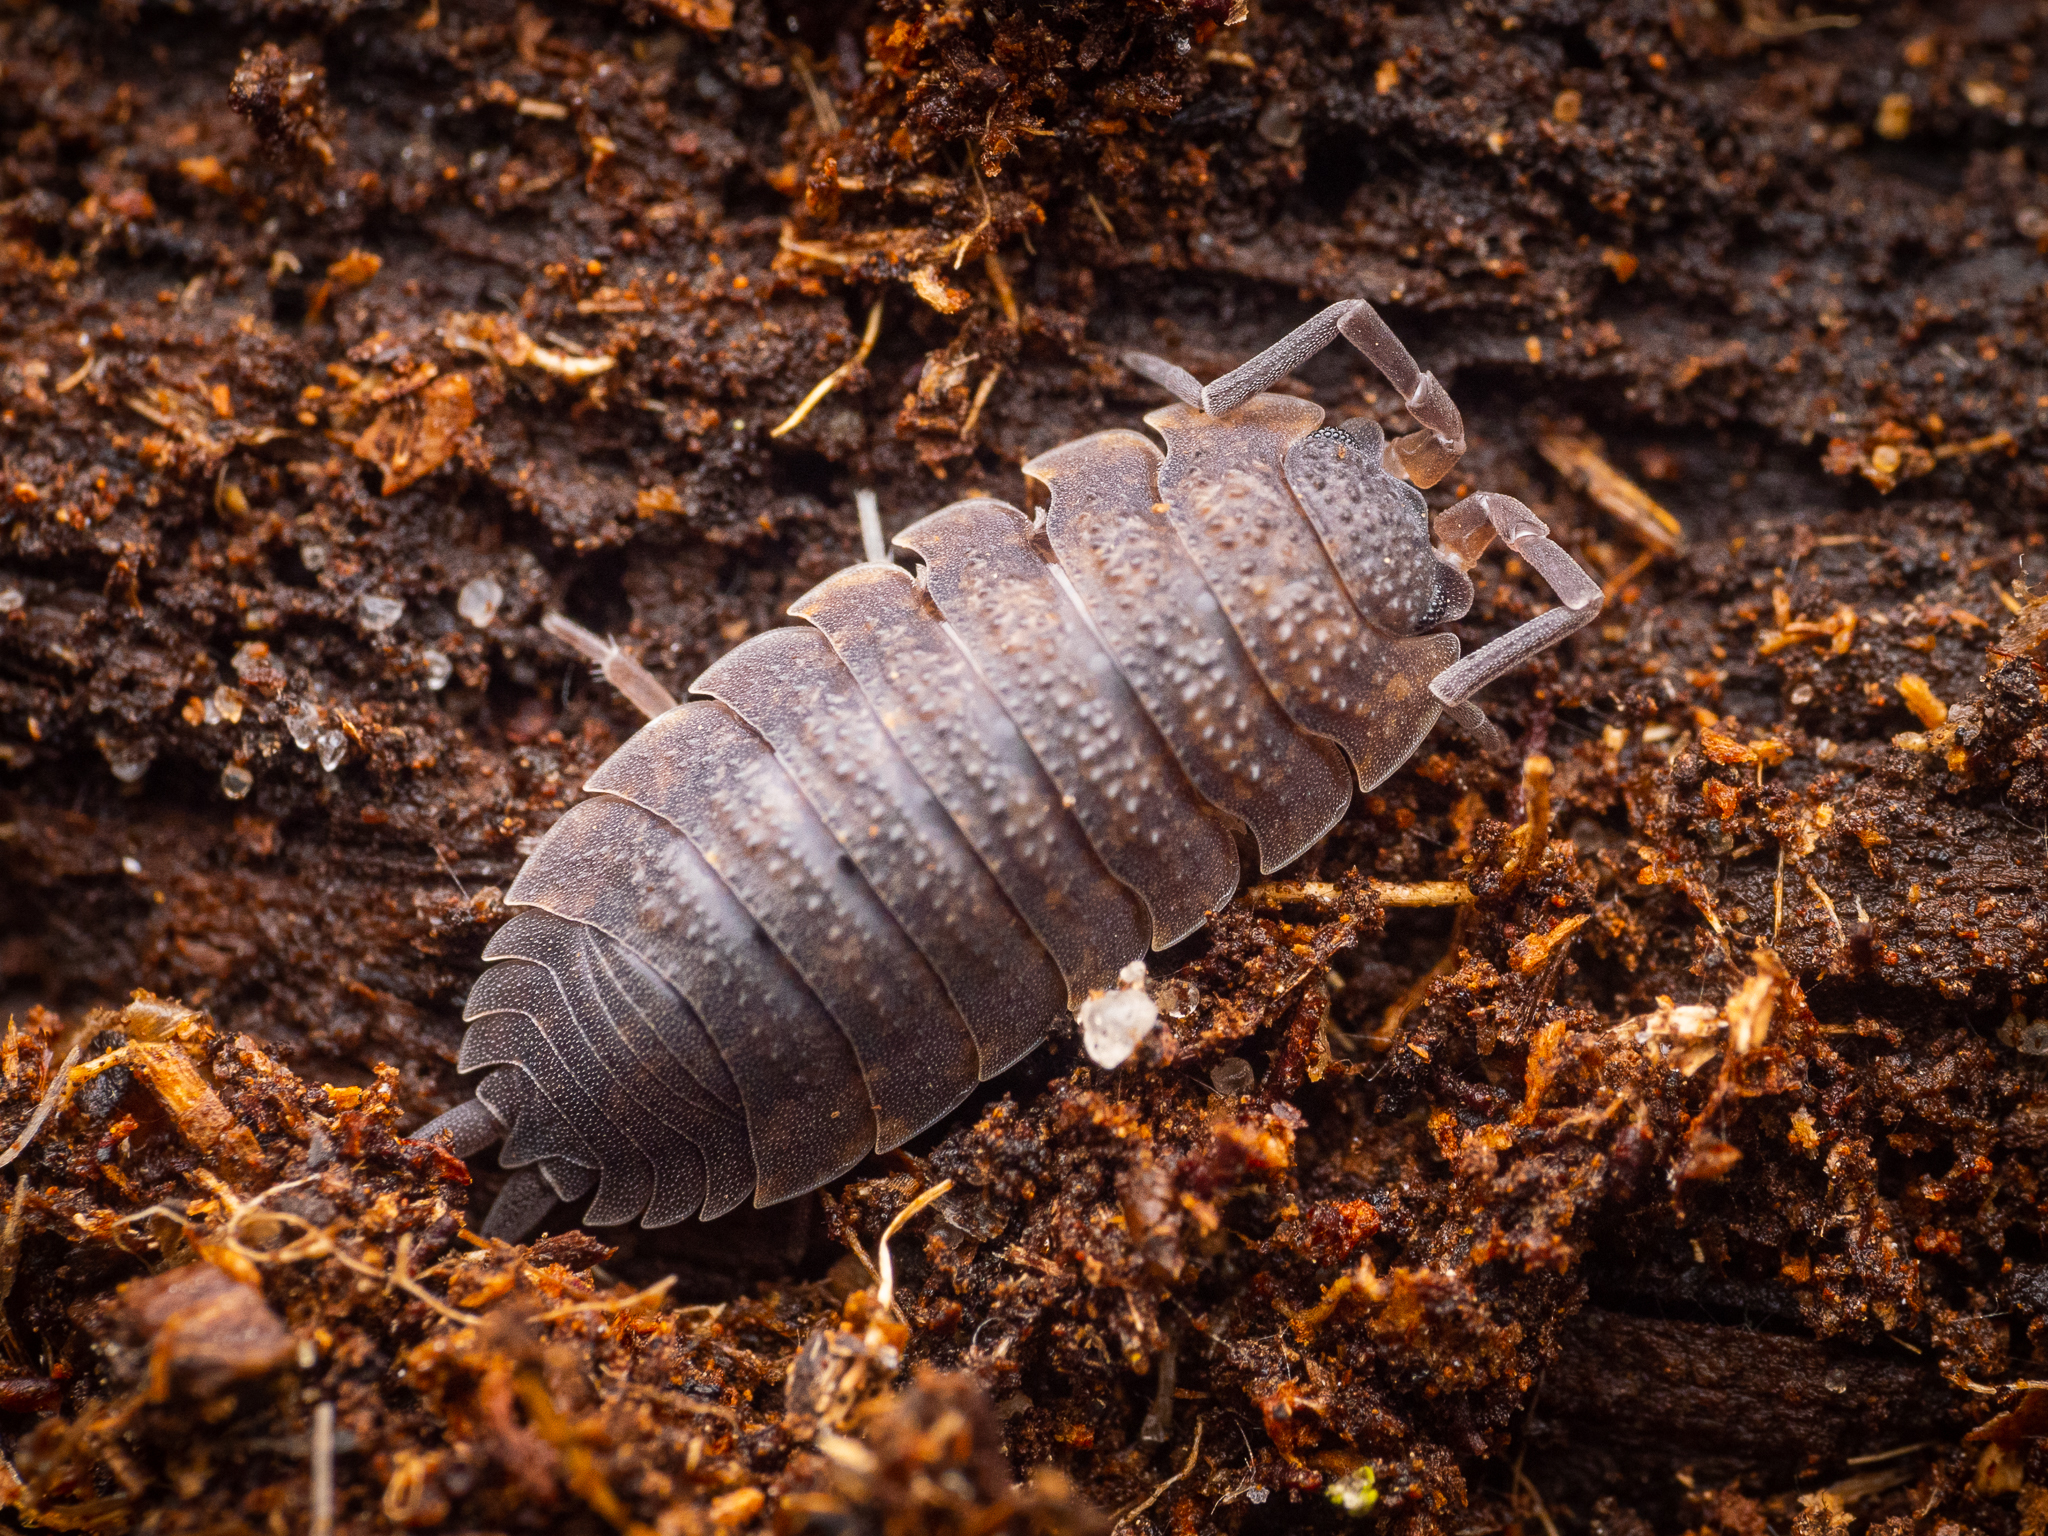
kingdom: Animalia
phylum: Arthropoda
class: Malacostraca
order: Isopoda
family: Porcellionidae
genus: Porcellio
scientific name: Porcellio scaber
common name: Common rough woodlouse
